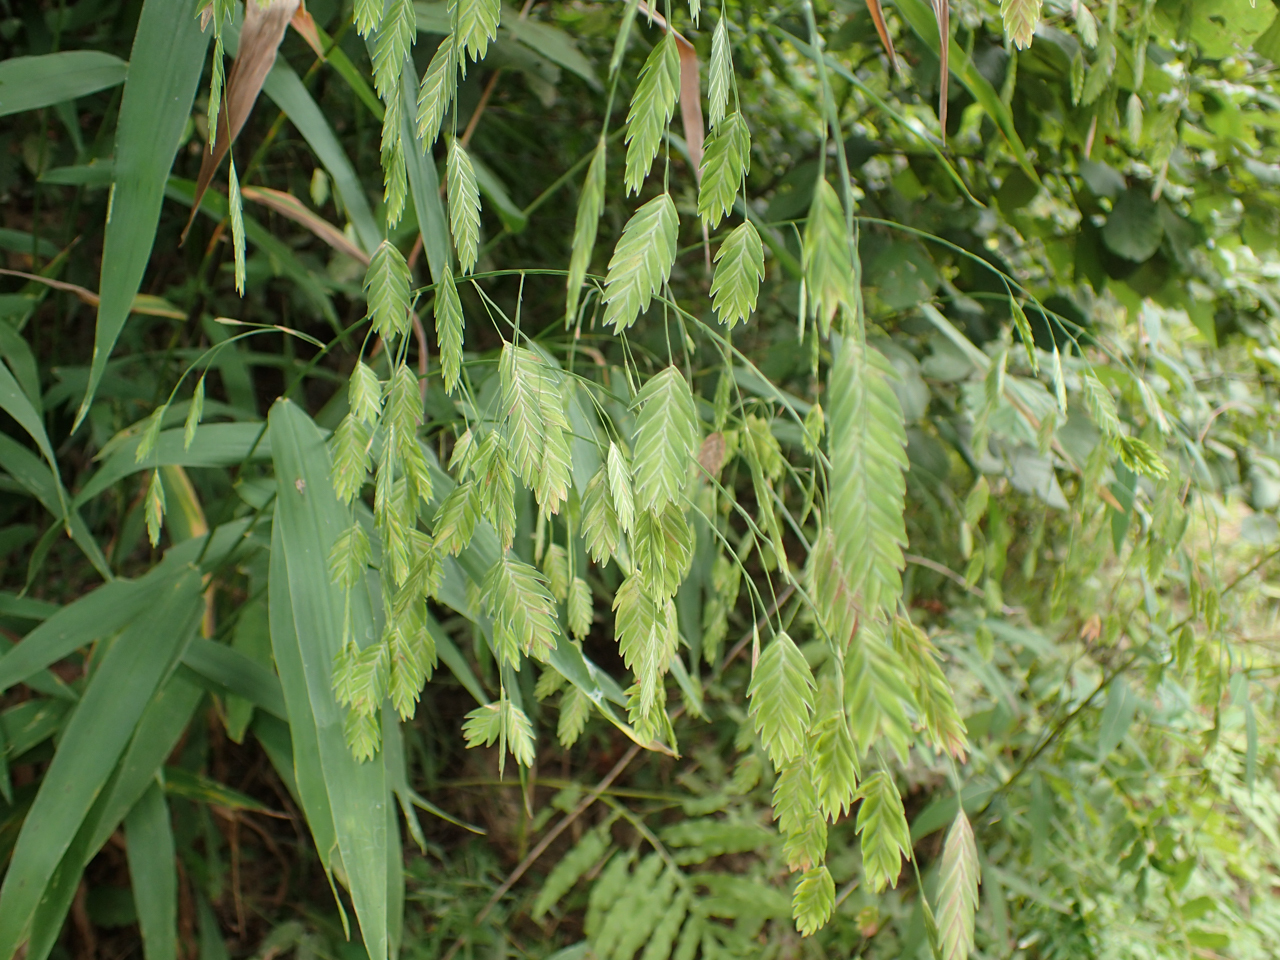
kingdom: Plantae
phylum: Tracheophyta
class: Liliopsida
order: Poales
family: Poaceae
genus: Chasmanthium
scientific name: Chasmanthium latifolium
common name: Broad-leaved chasmanthium
